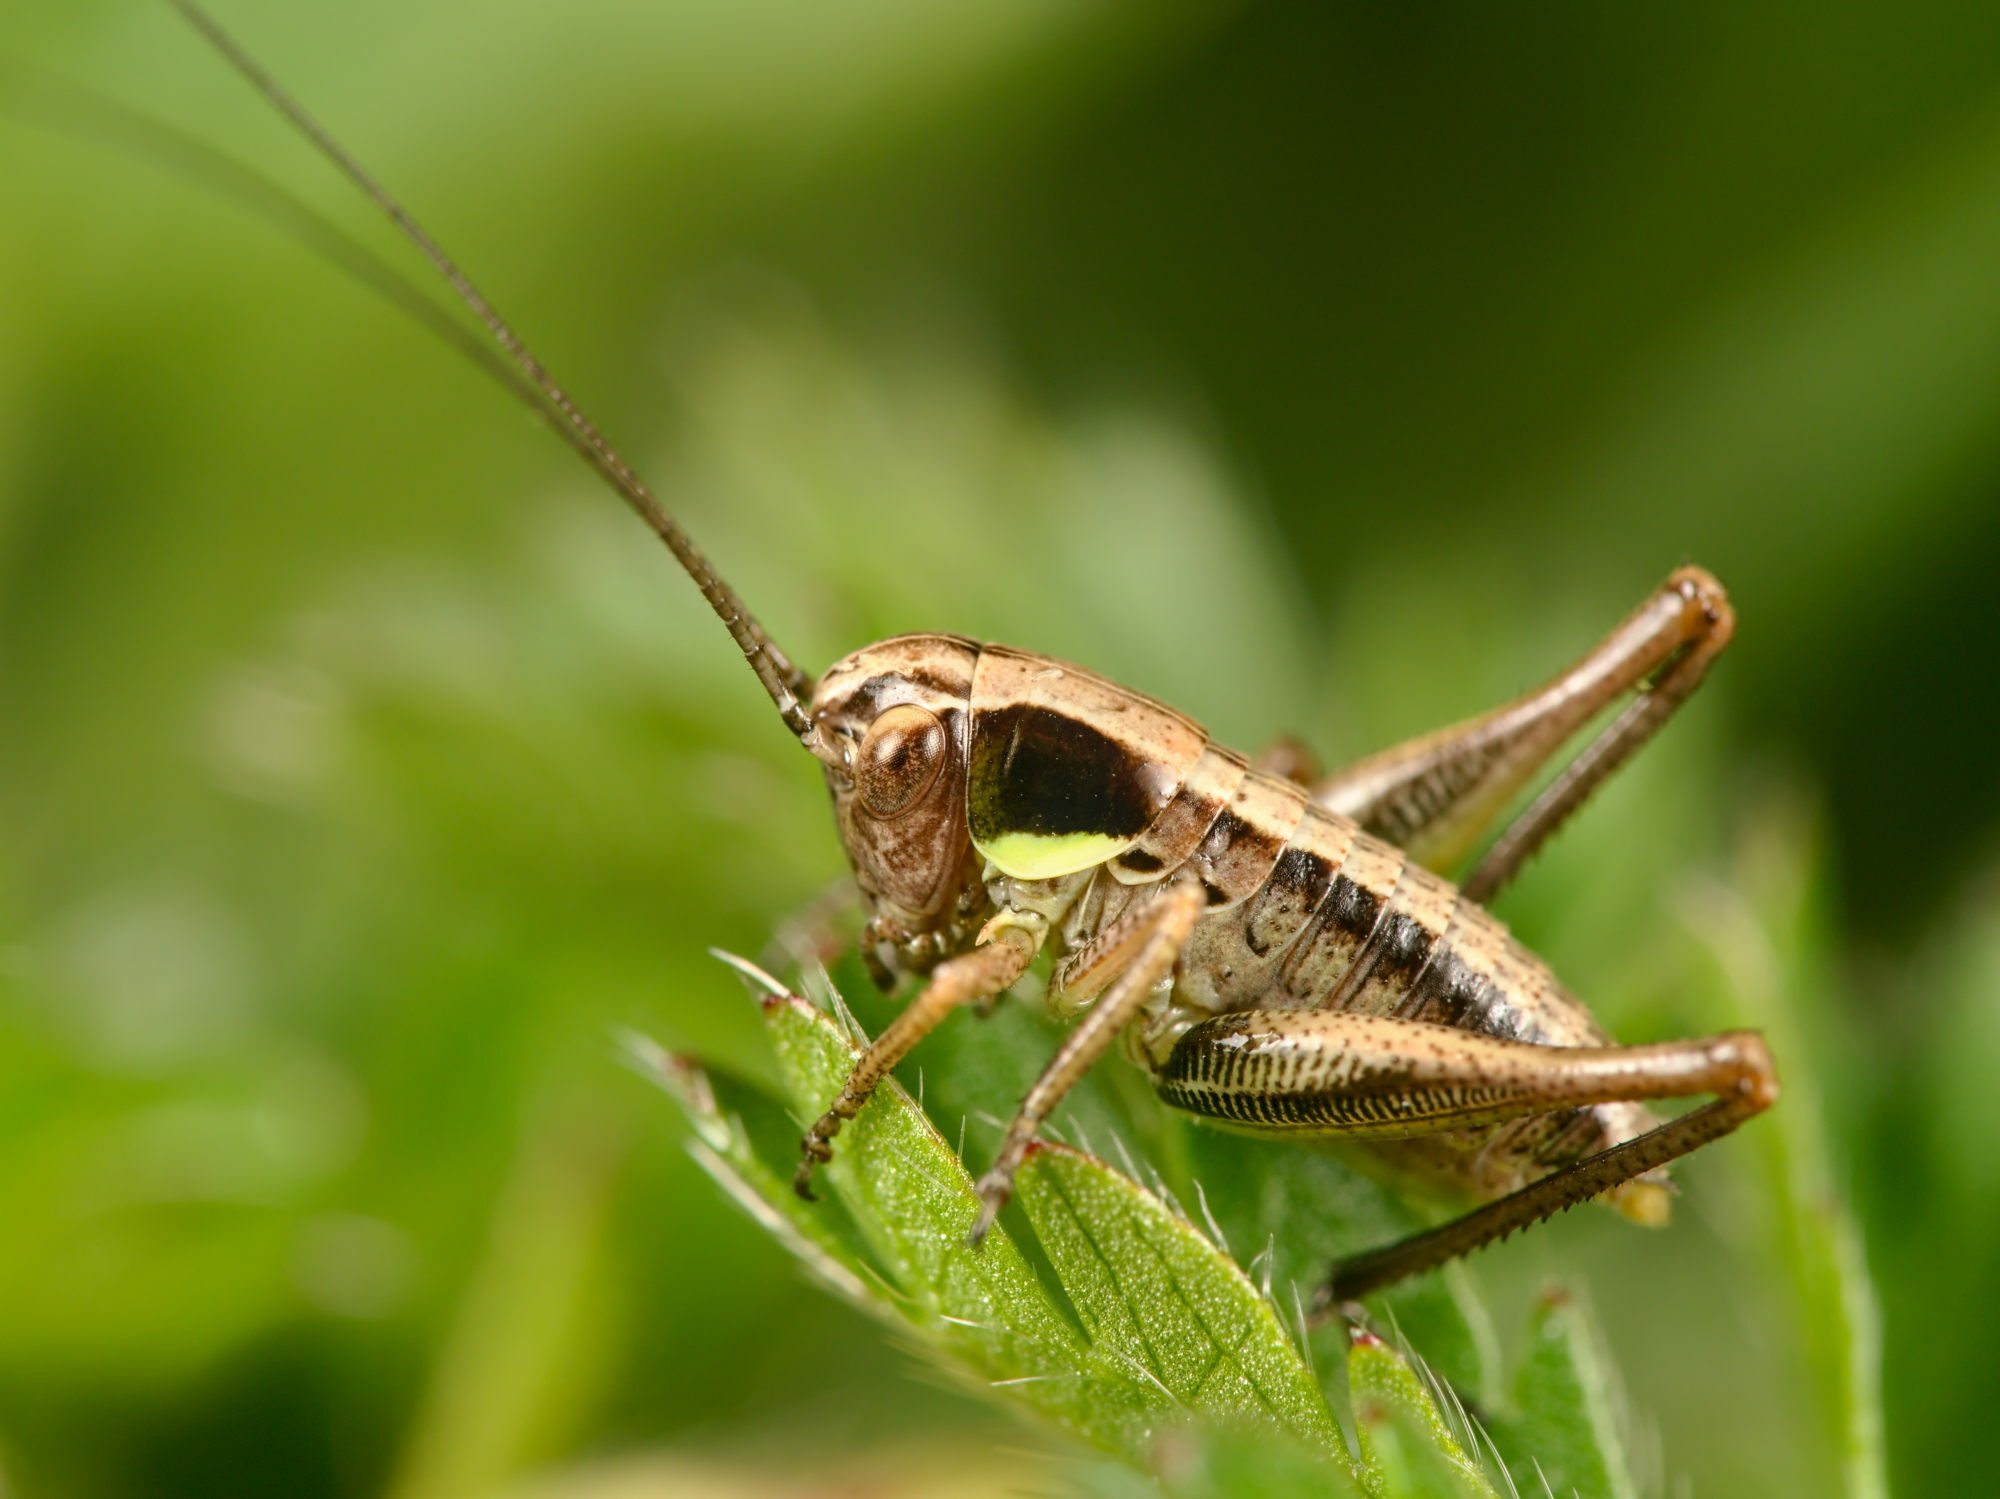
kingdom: Animalia
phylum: Arthropoda
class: Insecta
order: Orthoptera
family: Tettigoniidae
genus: Platycleis
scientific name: Platycleis albopunctata
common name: Grey bush-cricket
